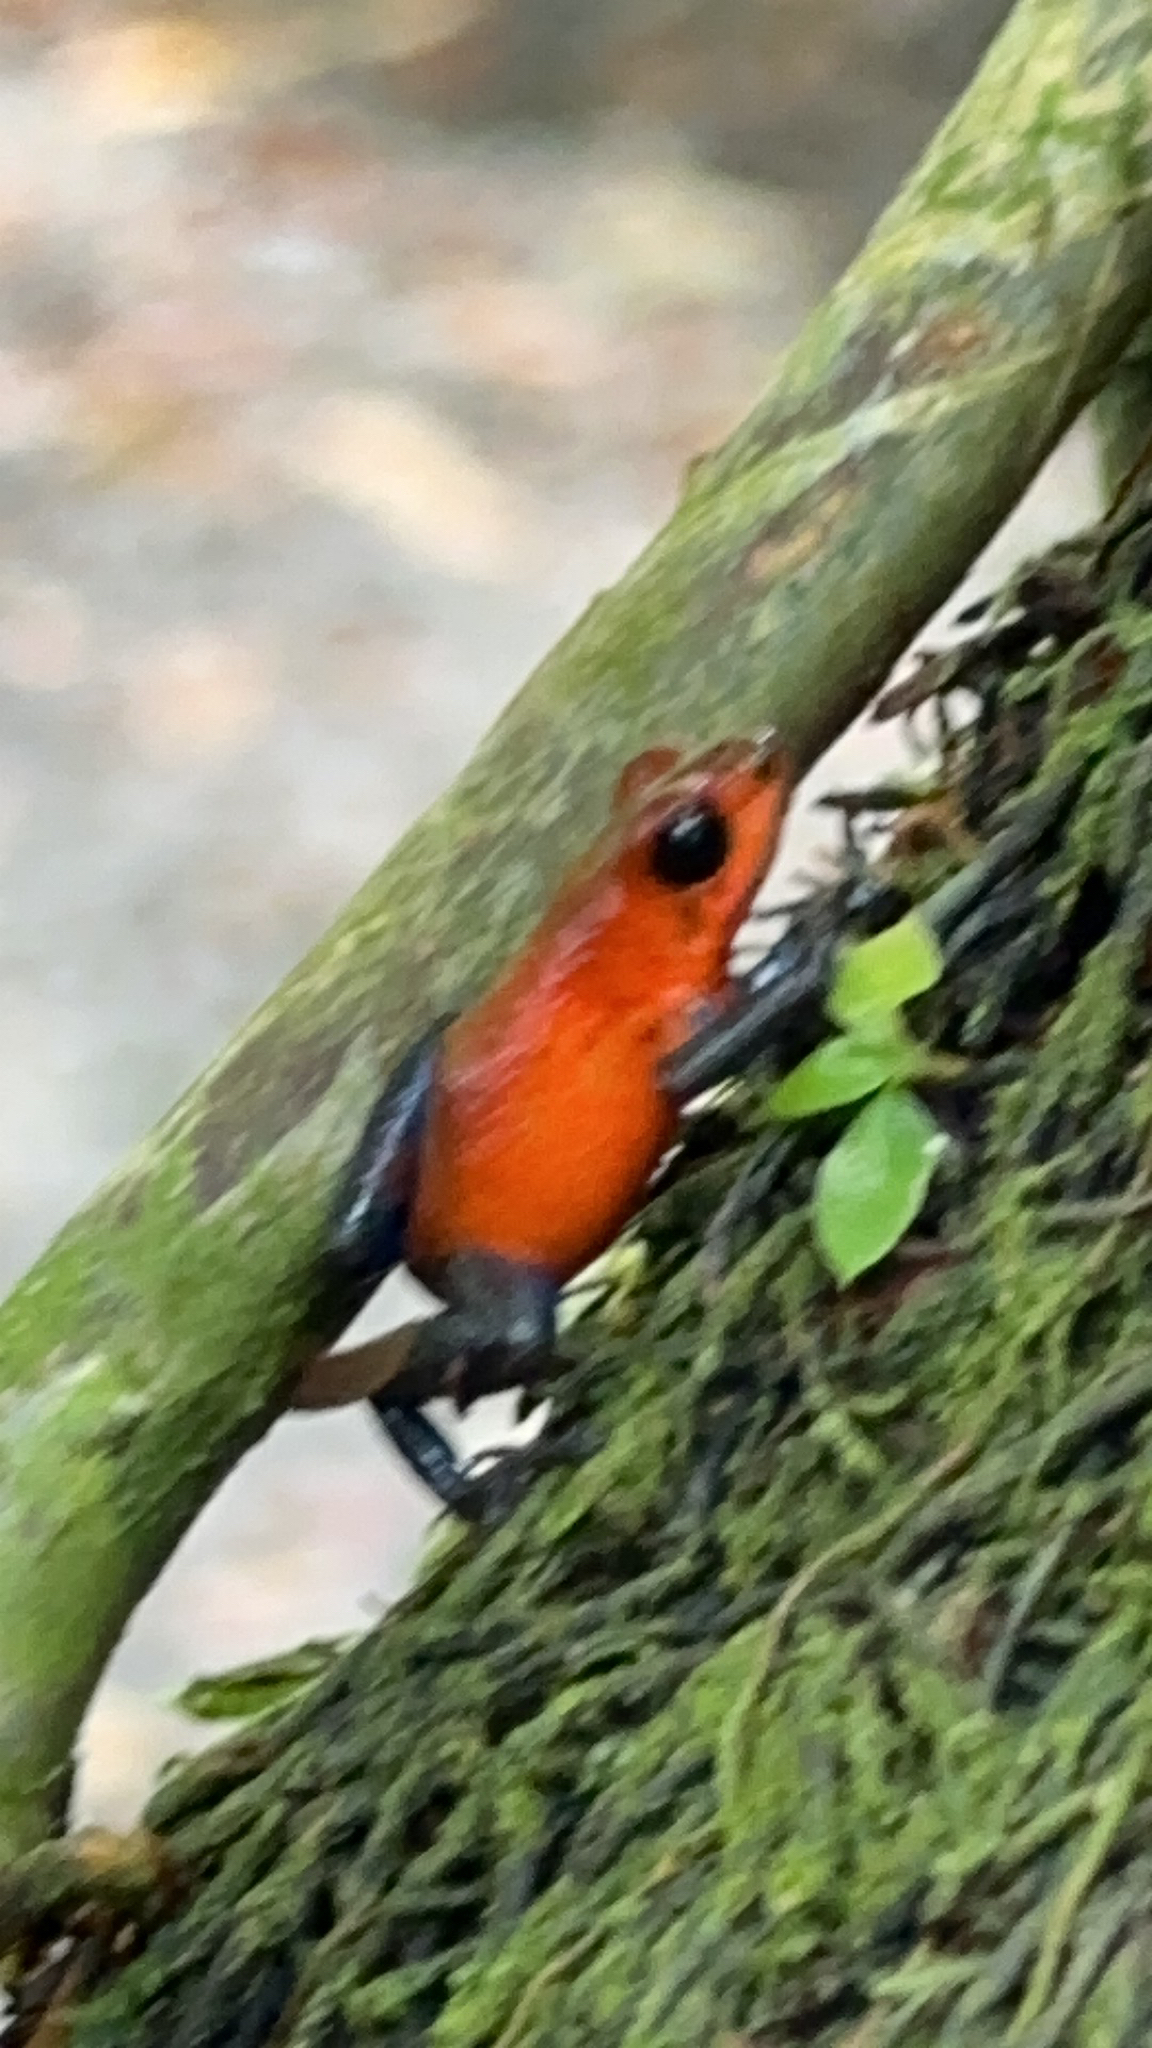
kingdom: Animalia
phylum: Chordata
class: Amphibia
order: Anura
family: Dendrobatidae
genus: Oophaga
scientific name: Oophaga pumilio
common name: Flaming poison frog
